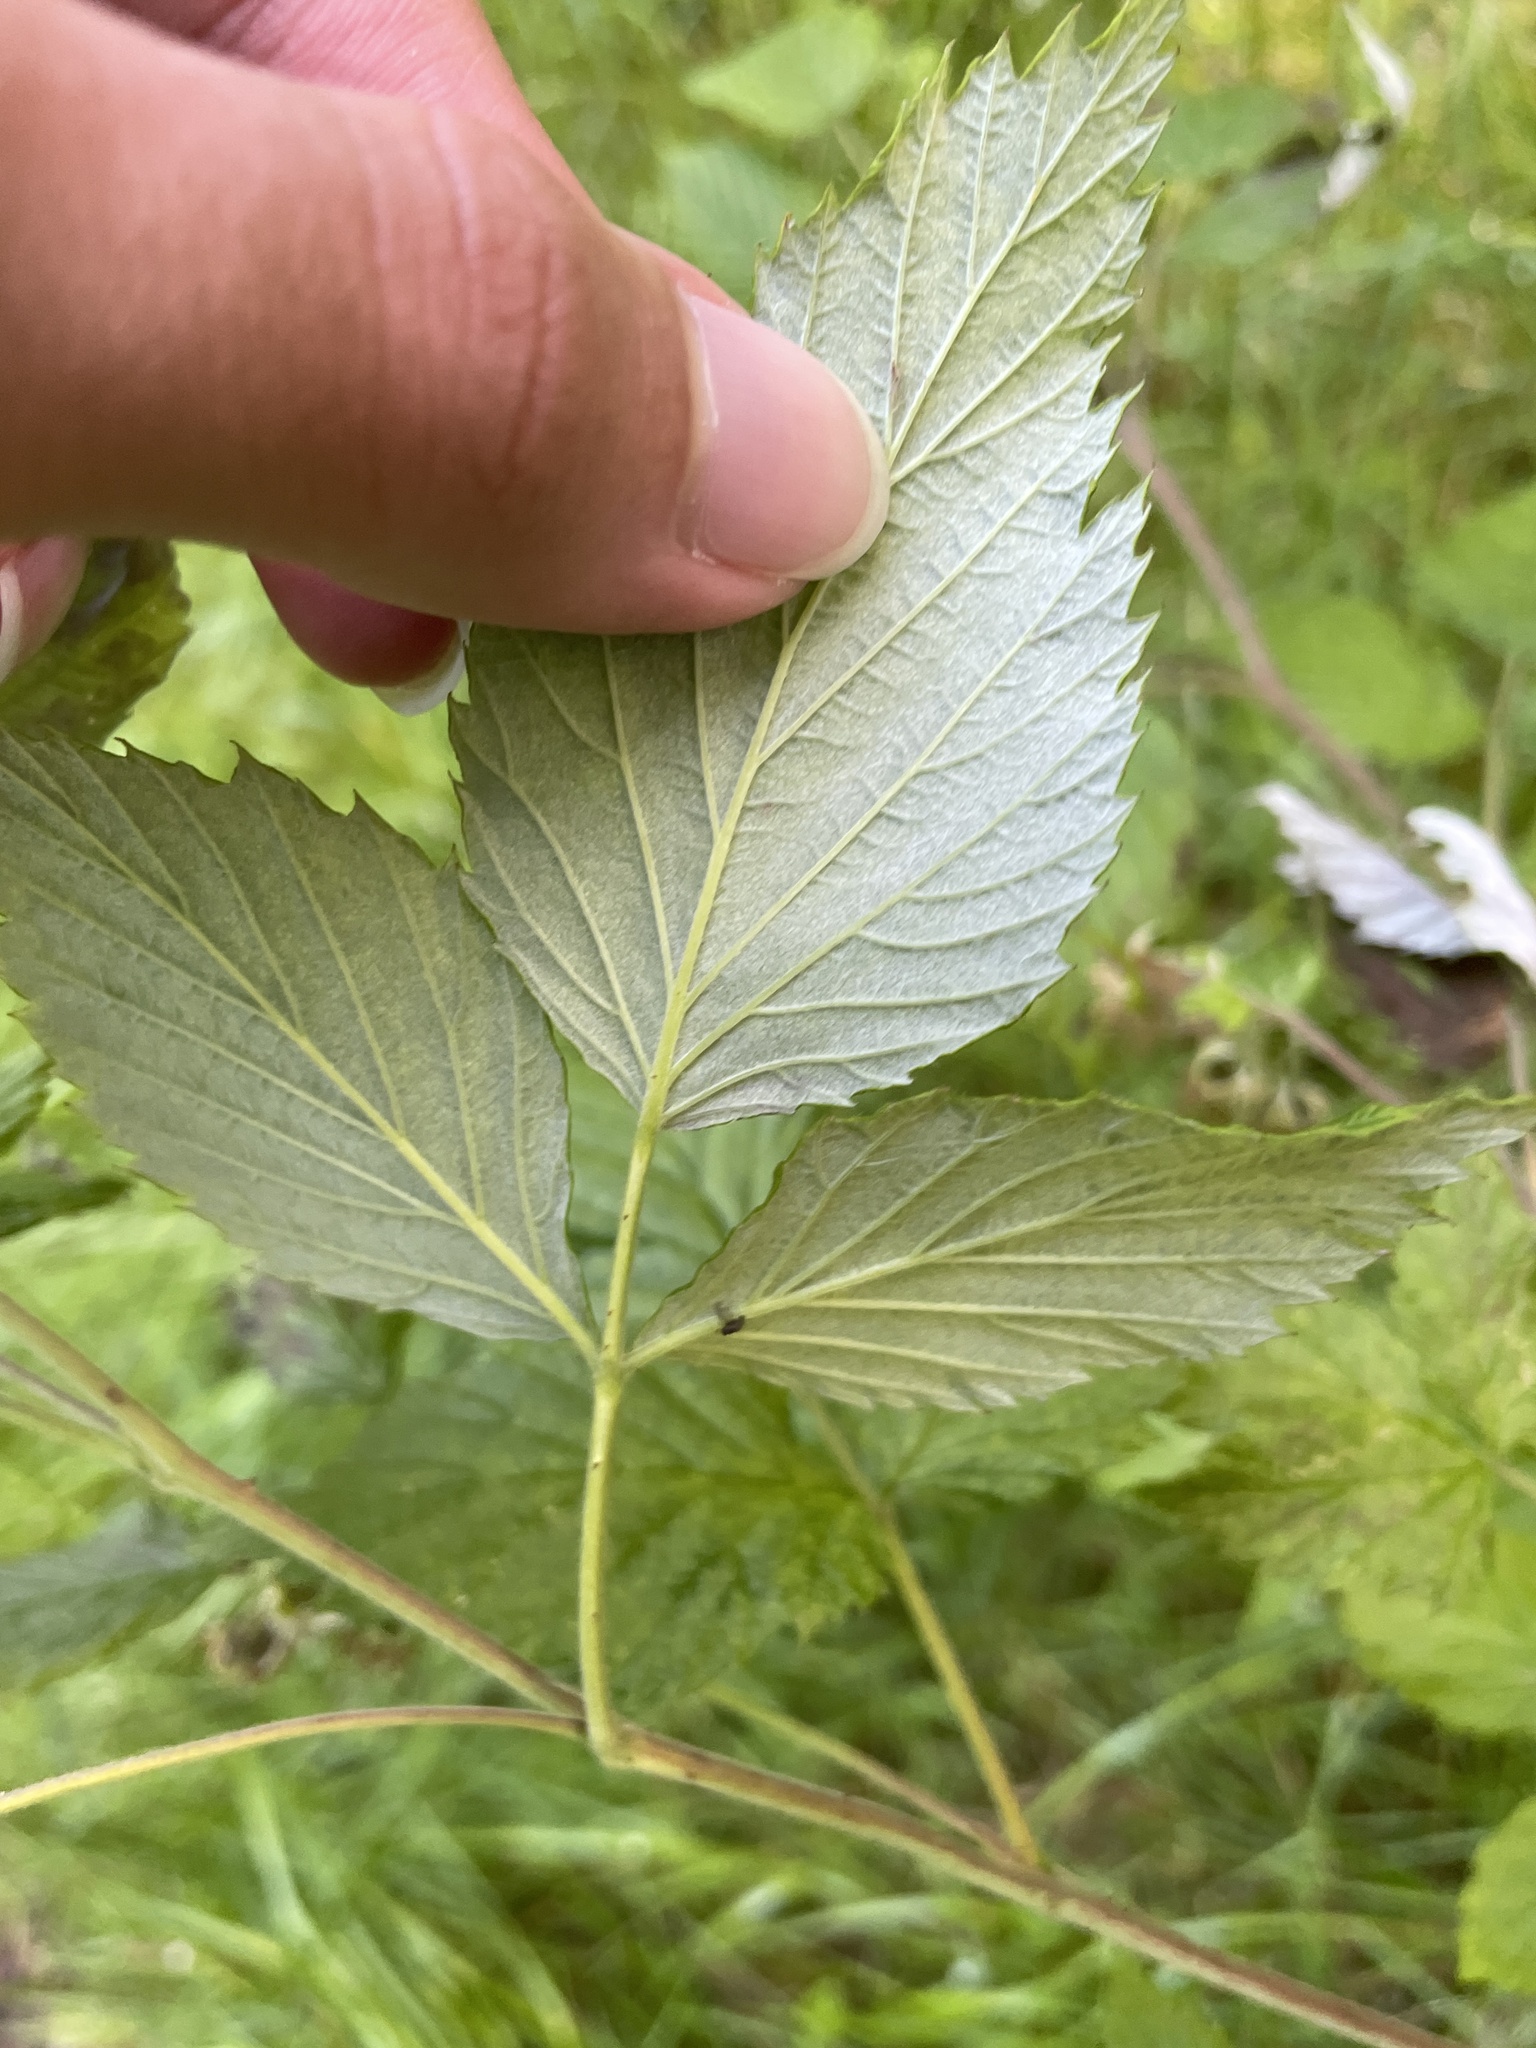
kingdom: Plantae
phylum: Tracheophyta
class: Magnoliopsida
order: Rosales
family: Rosaceae
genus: Rubus
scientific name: Rubus idaeus
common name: Raspberry
